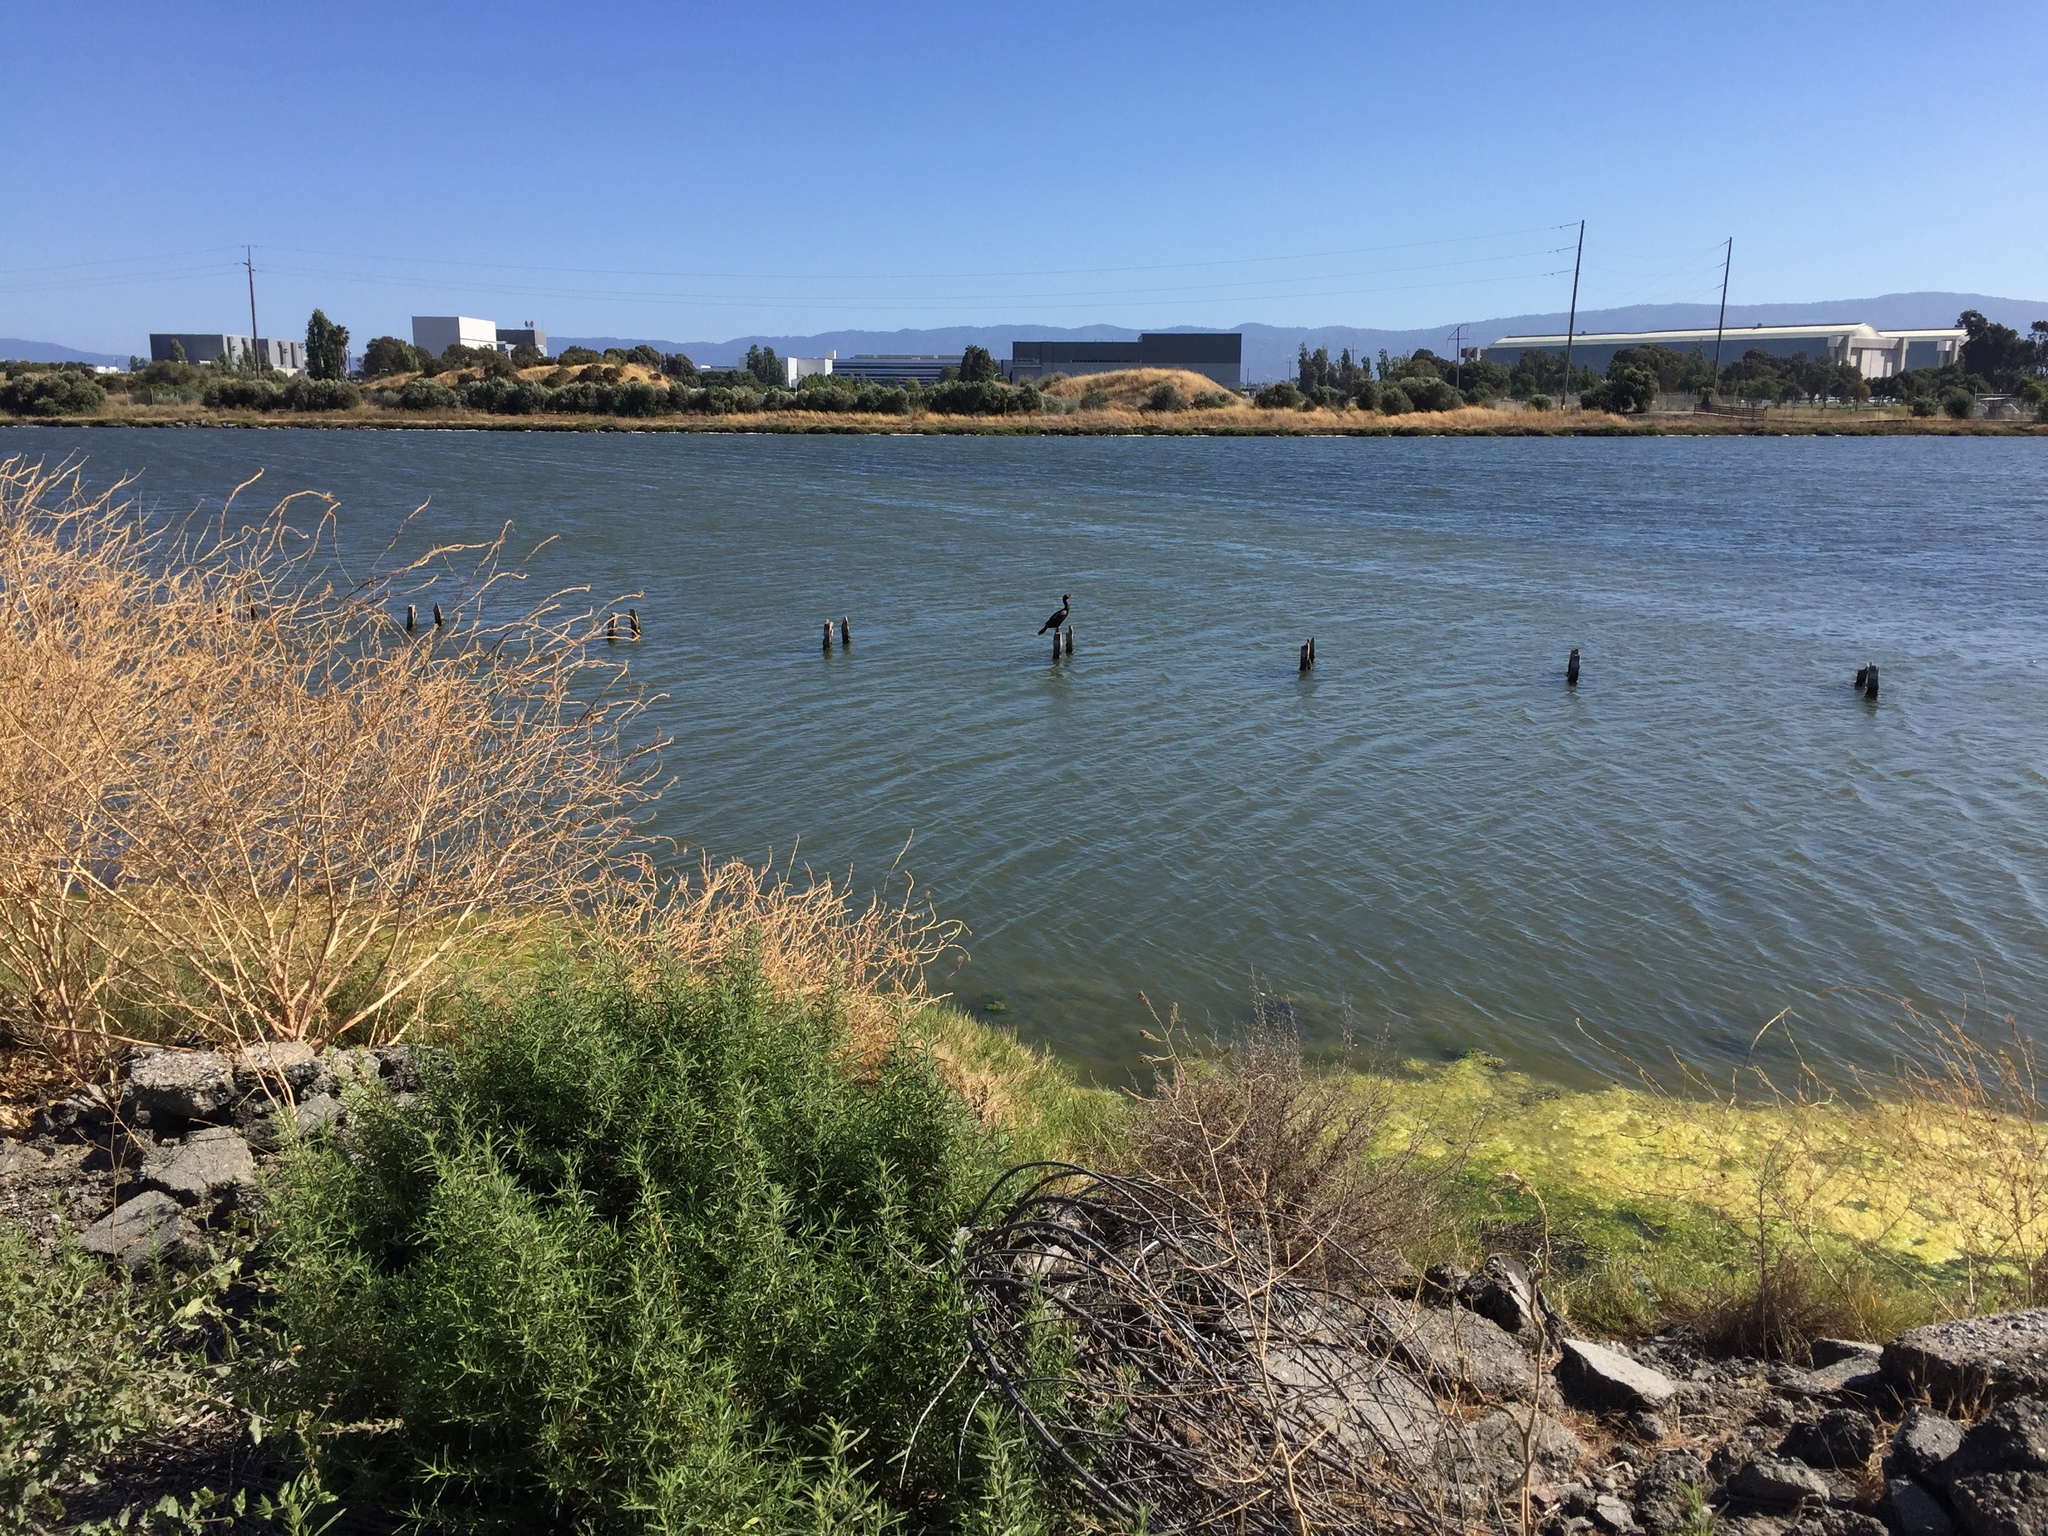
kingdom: Animalia
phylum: Chordata
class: Aves
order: Suliformes
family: Phalacrocoracidae
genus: Phalacrocorax
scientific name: Phalacrocorax auritus
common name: Double-crested cormorant
